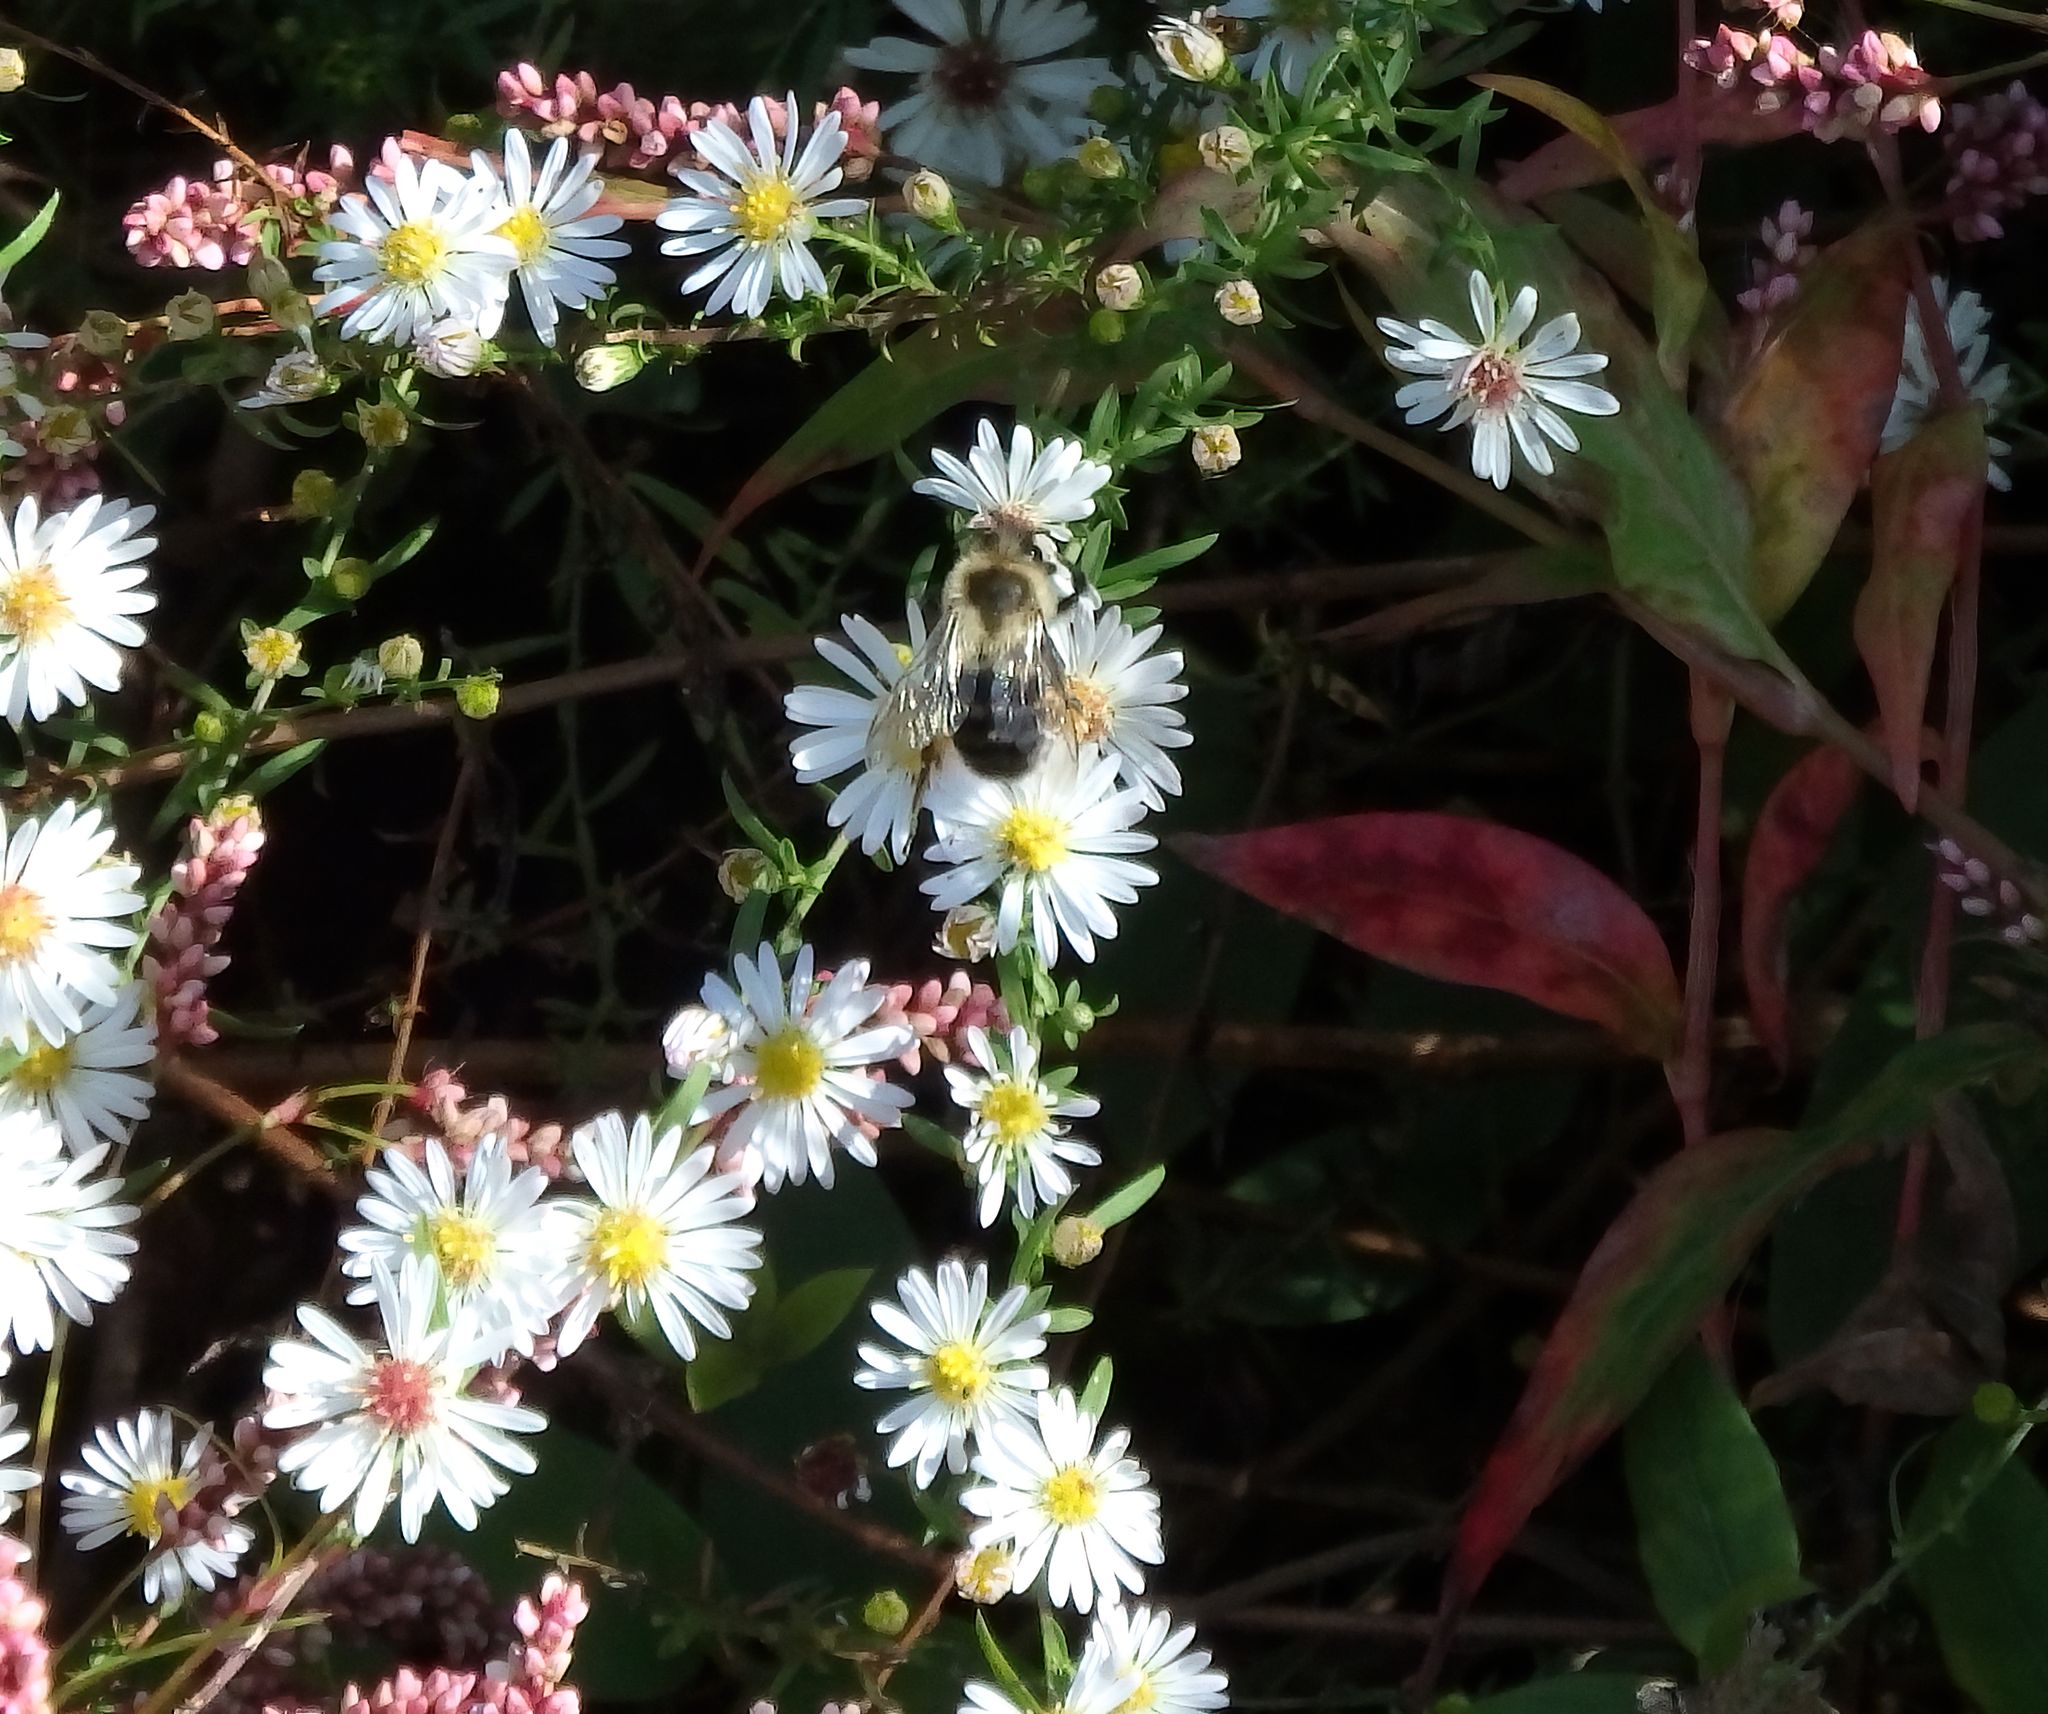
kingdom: Animalia
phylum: Arthropoda
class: Insecta
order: Hymenoptera
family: Apidae
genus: Bombus
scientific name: Bombus impatiens
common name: Common eastern bumble bee
